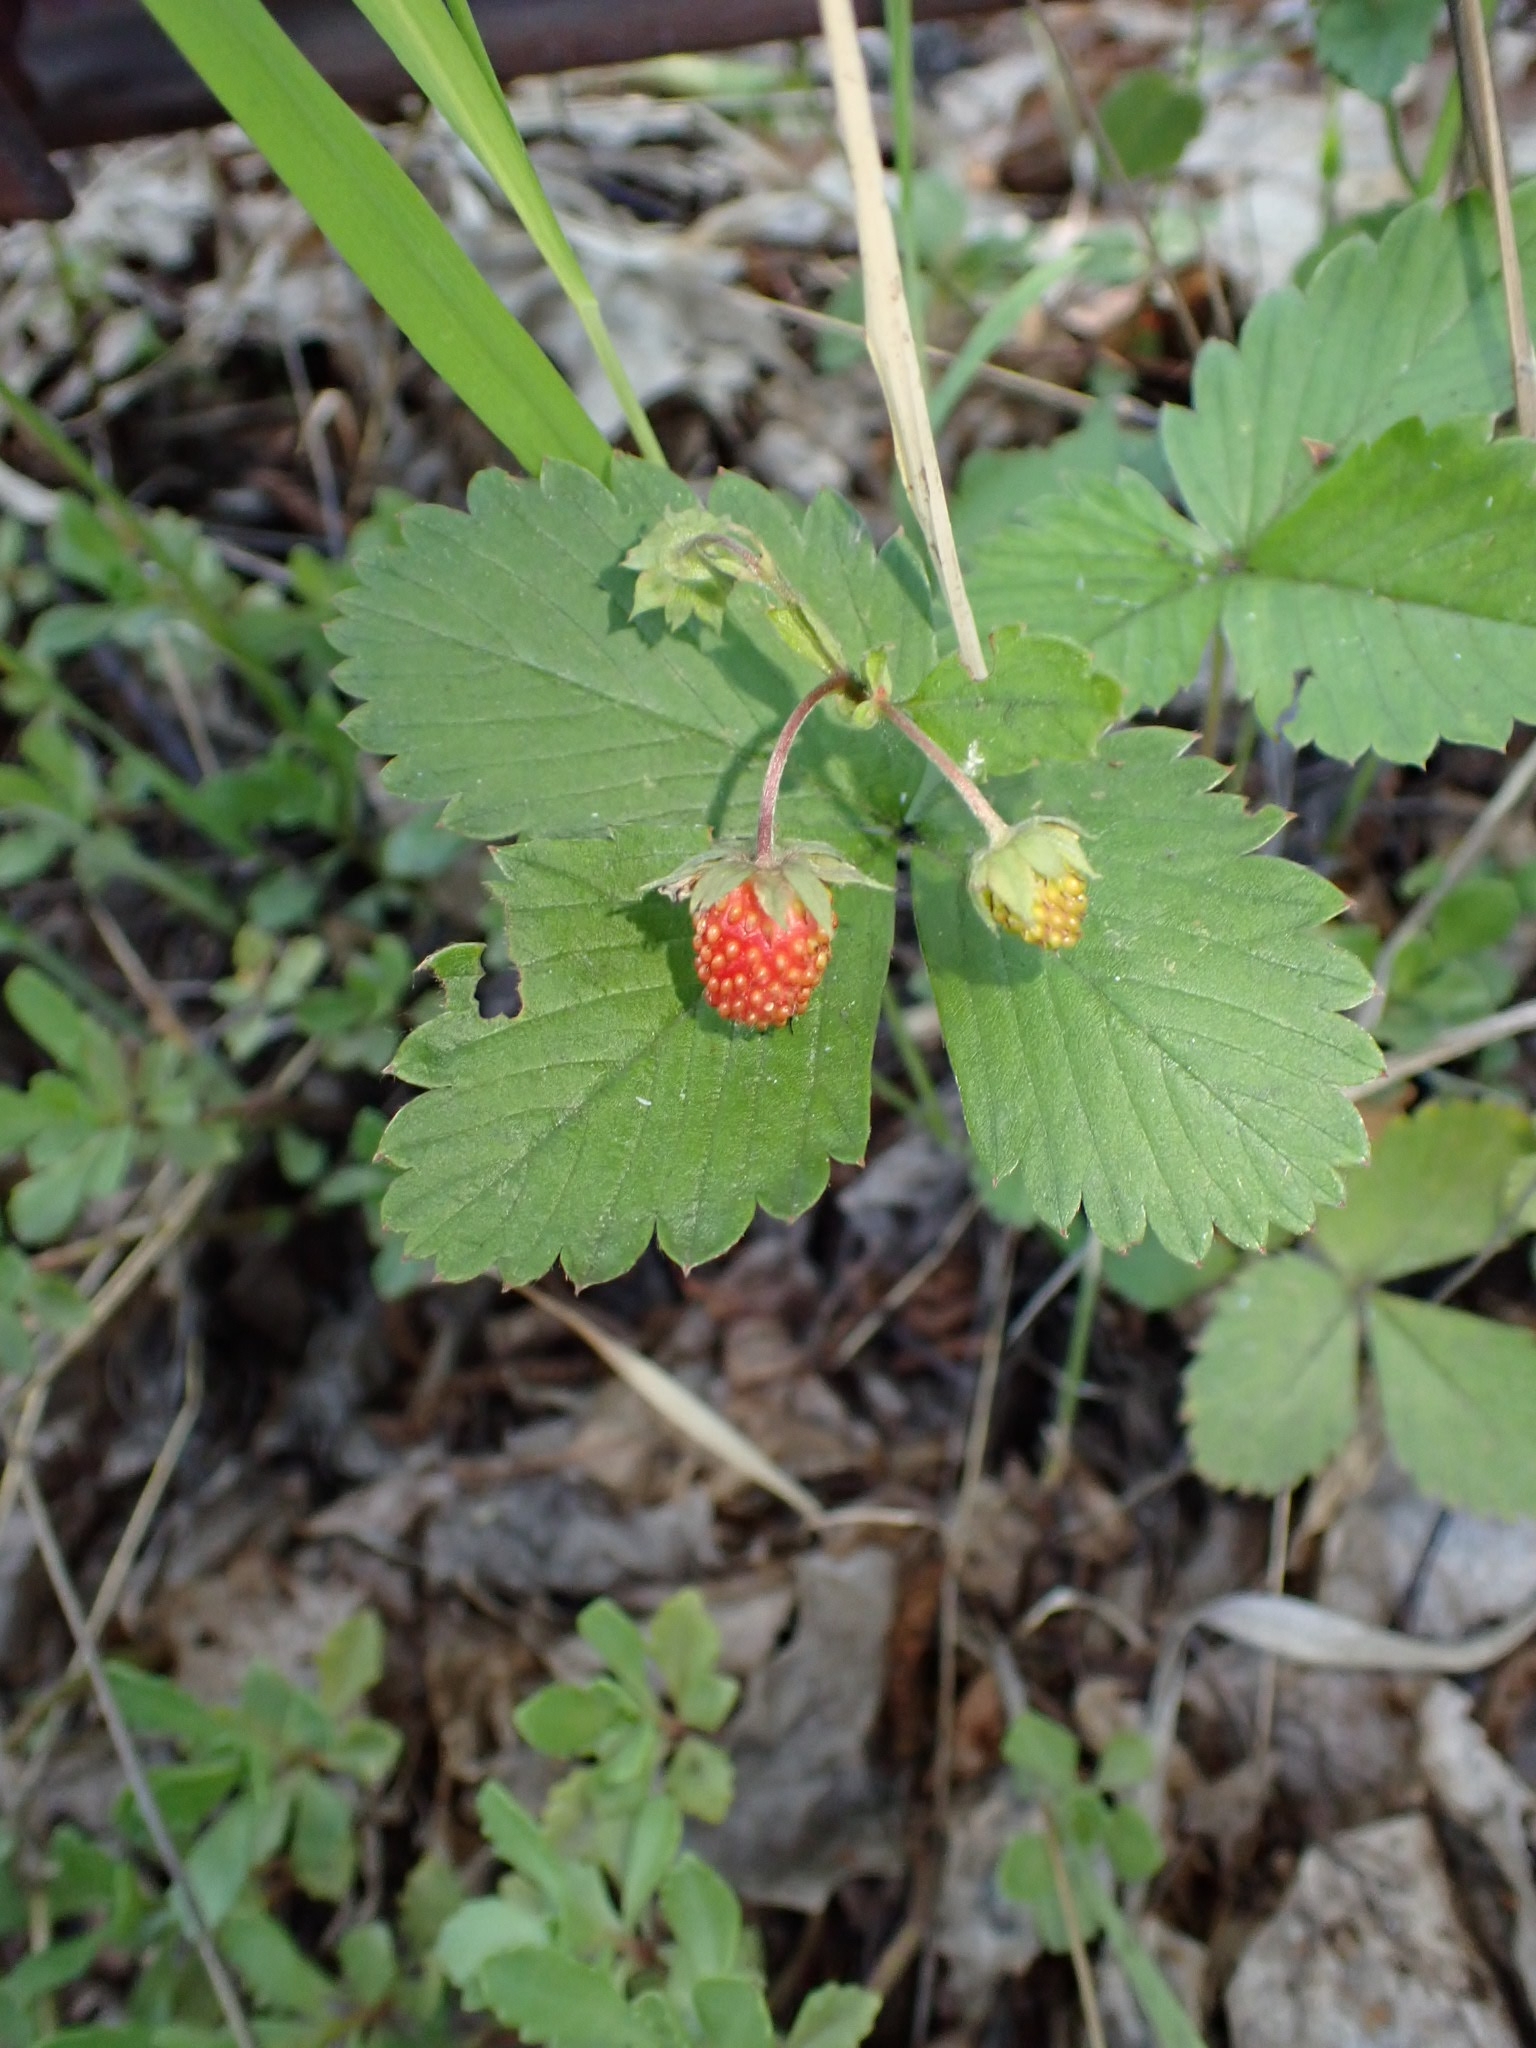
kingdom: Plantae
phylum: Tracheophyta
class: Magnoliopsida
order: Rosales
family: Rosaceae
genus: Fragaria
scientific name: Fragaria vesca
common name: Wild strawberry
